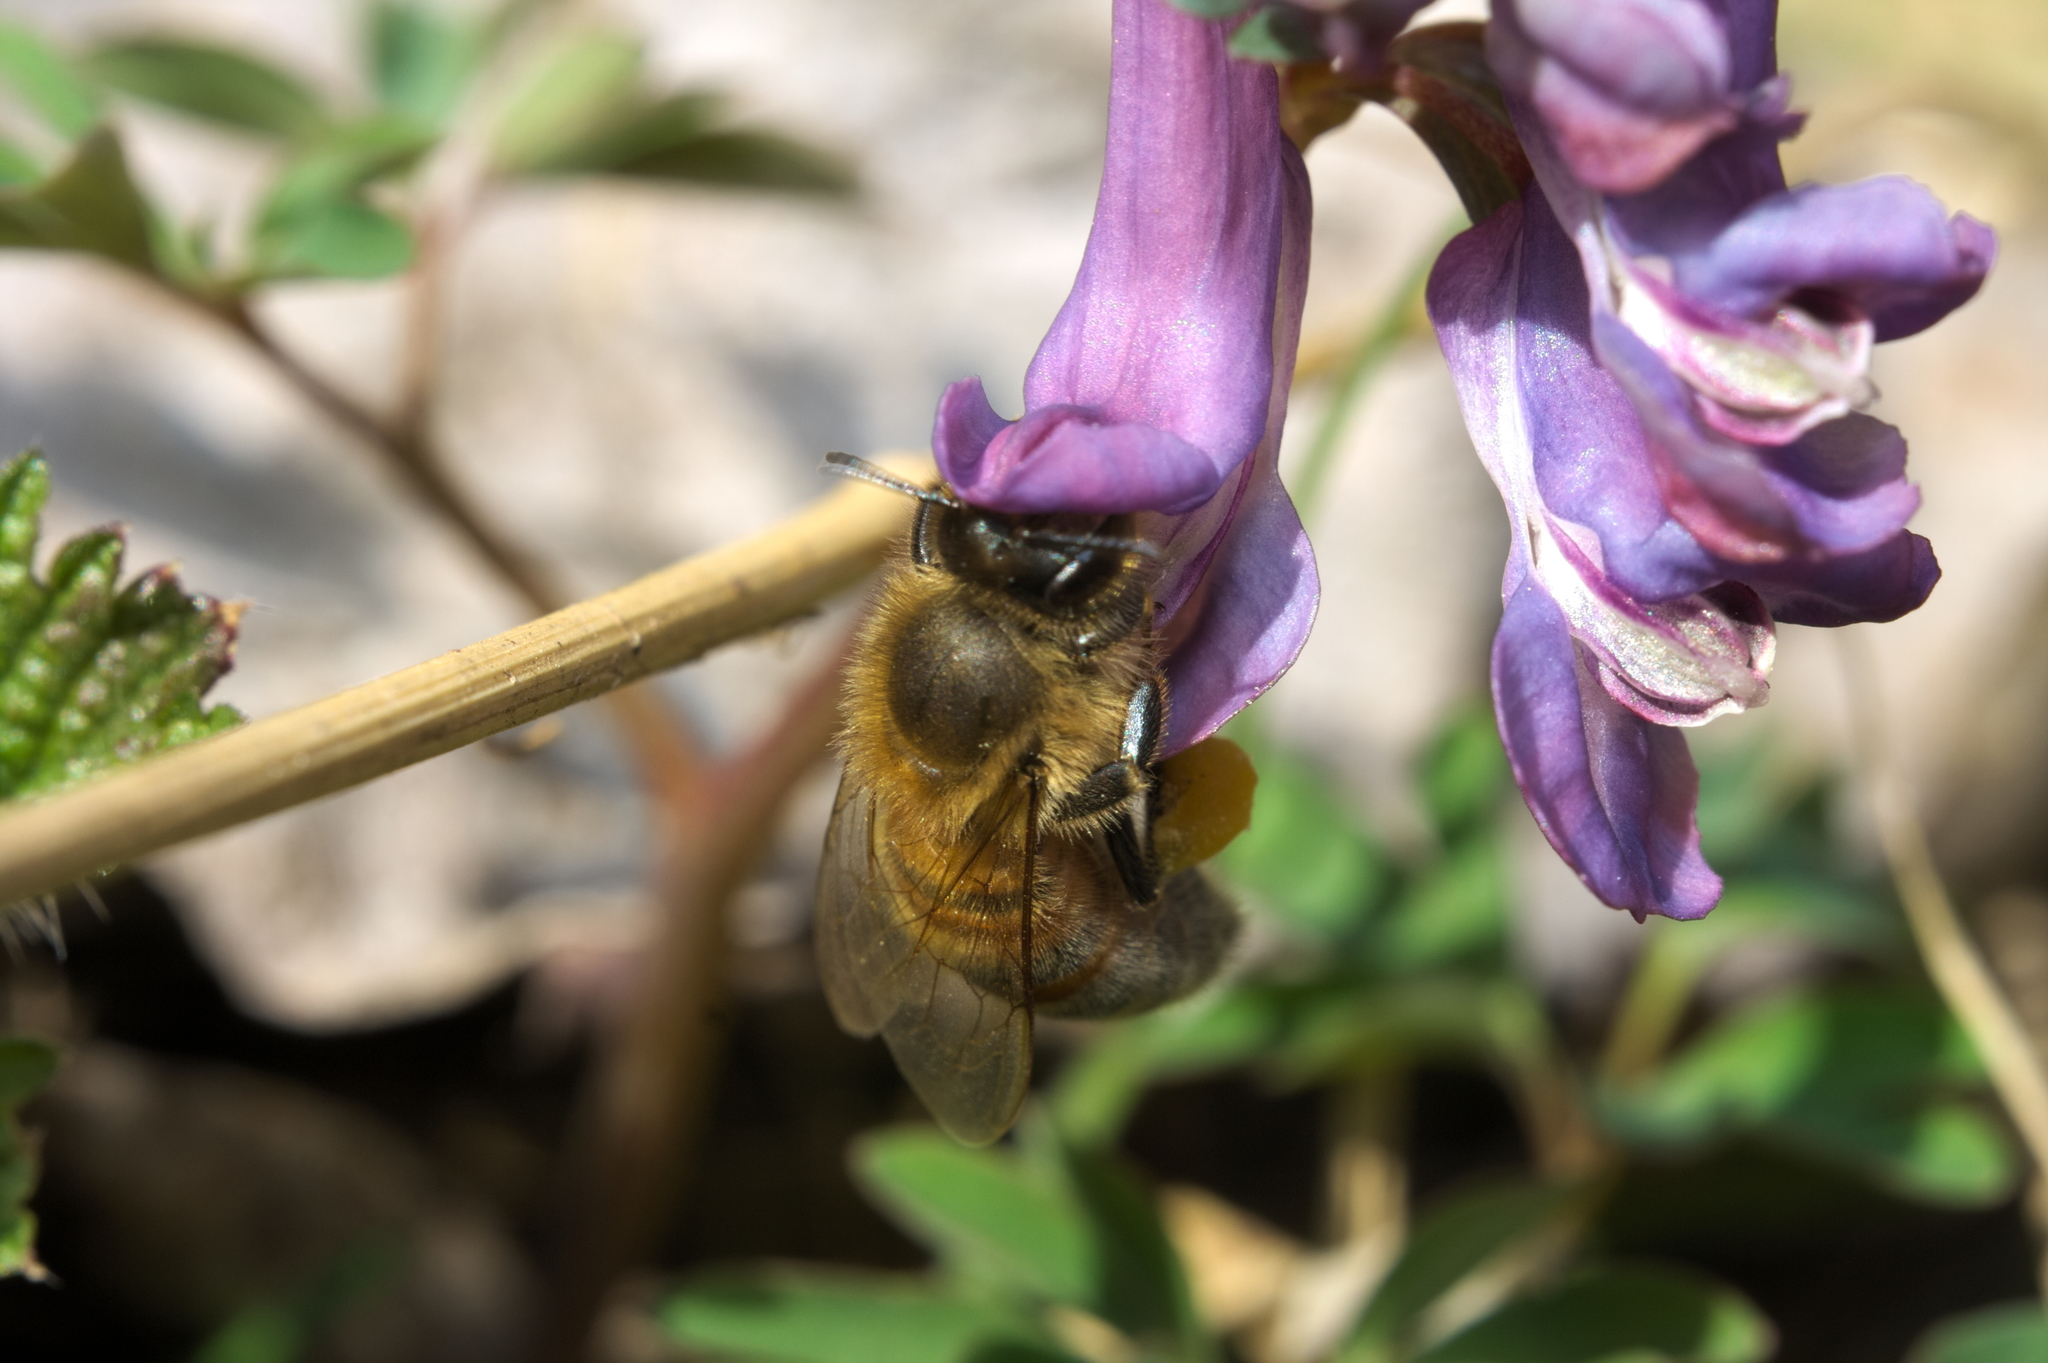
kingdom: Animalia
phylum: Arthropoda
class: Insecta
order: Hymenoptera
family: Apidae
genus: Apis
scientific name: Apis mellifera
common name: Honey bee
